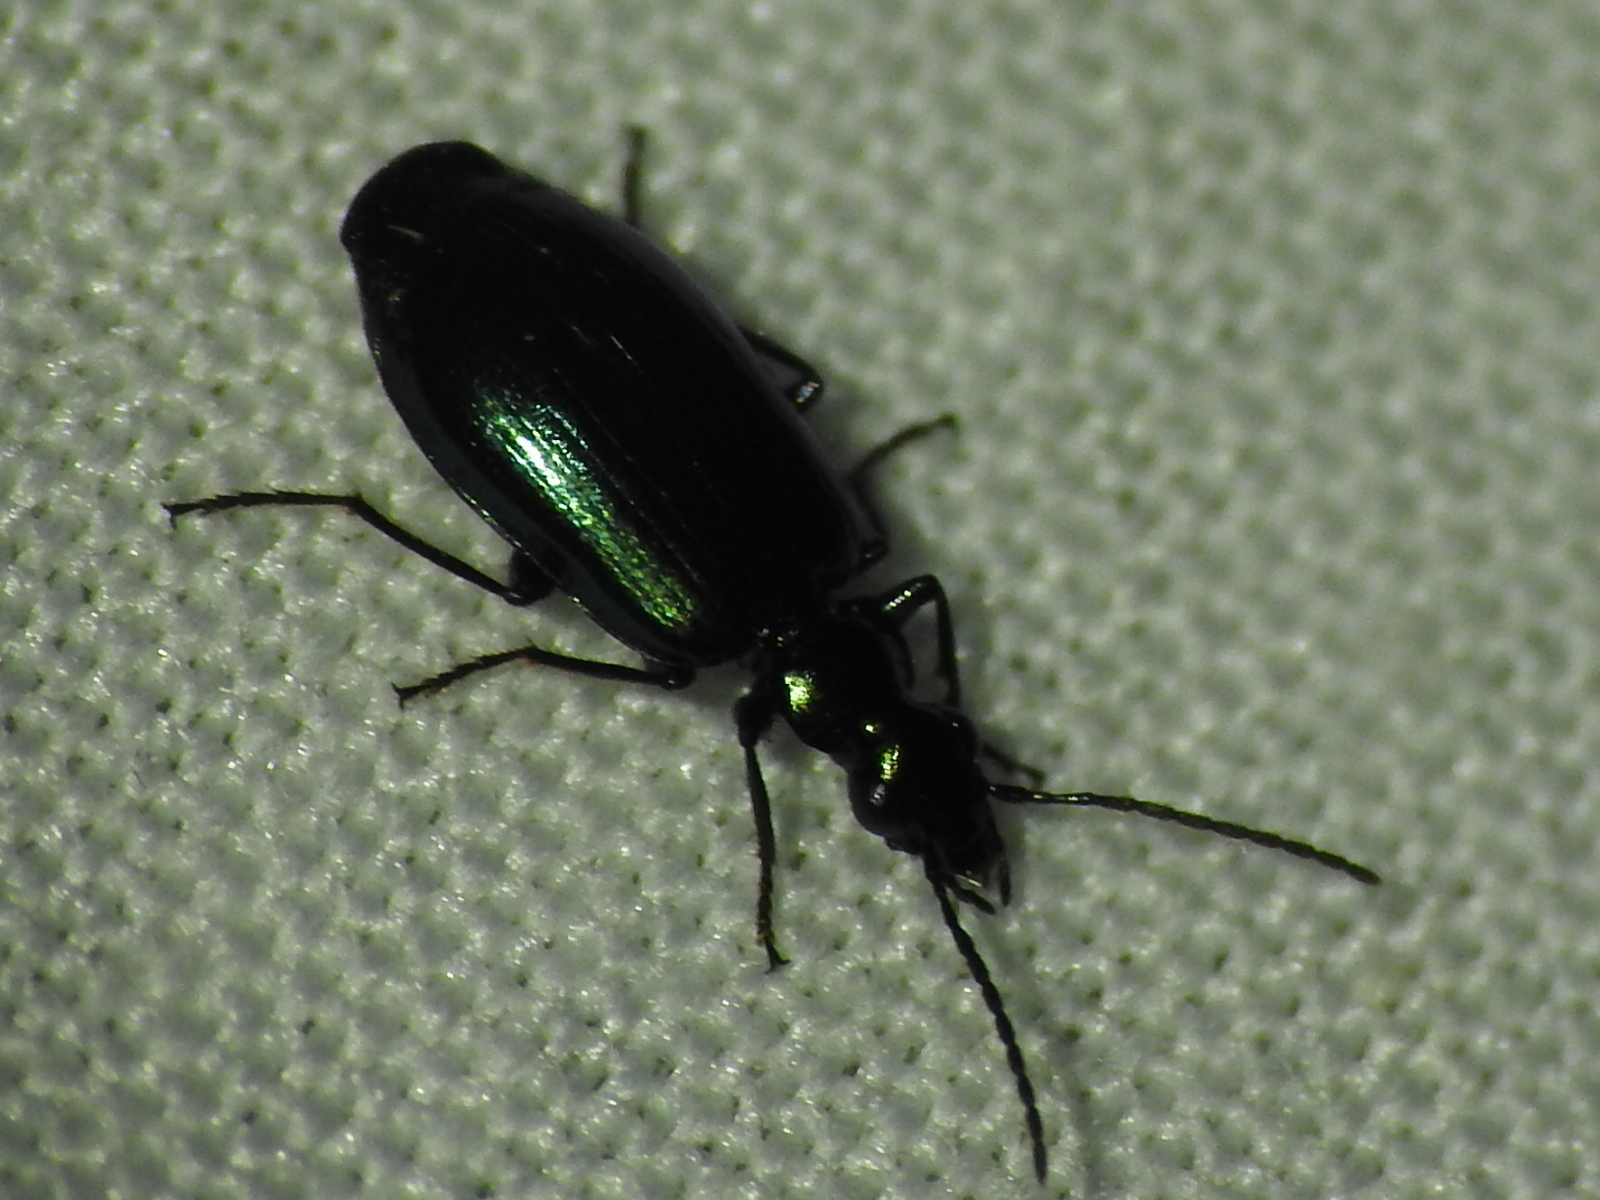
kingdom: Animalia
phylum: Arthropoda
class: Insecta
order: Coleoptera
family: Carabidae
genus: Lebia
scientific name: Lebia viridis
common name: Flower lebia beetle
